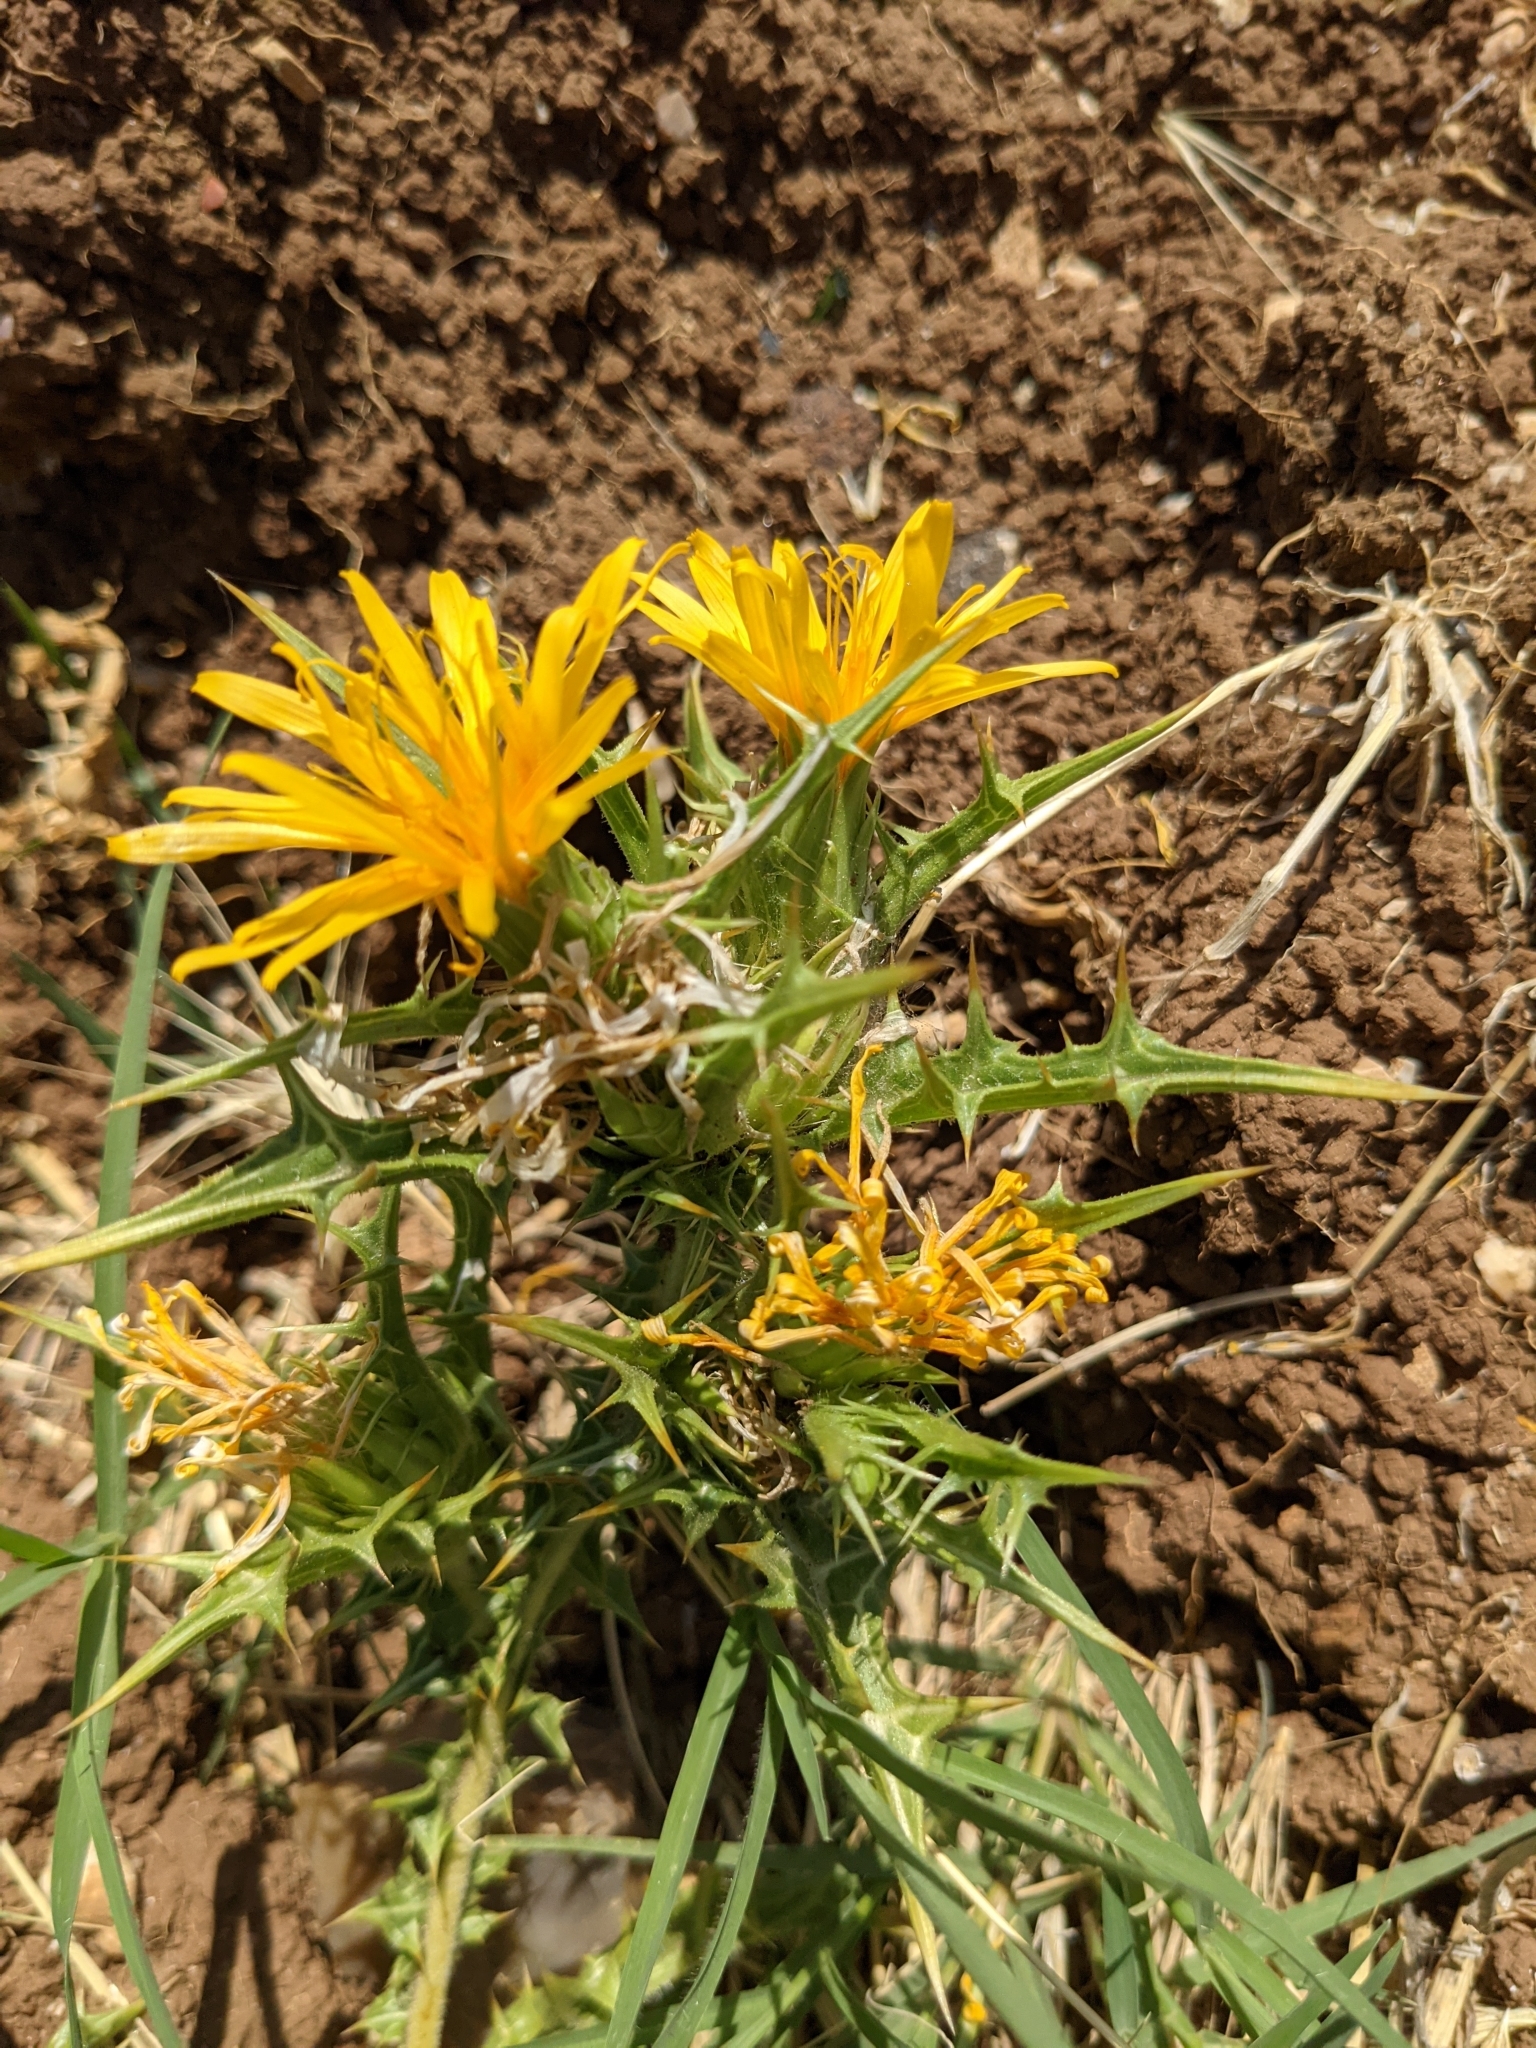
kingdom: Plantae
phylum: Tracheophyta
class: Magnoliopsida
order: Asterales
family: Asteraceae
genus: Scolymus
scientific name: Scolymus hispanicus
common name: Golden thistle
